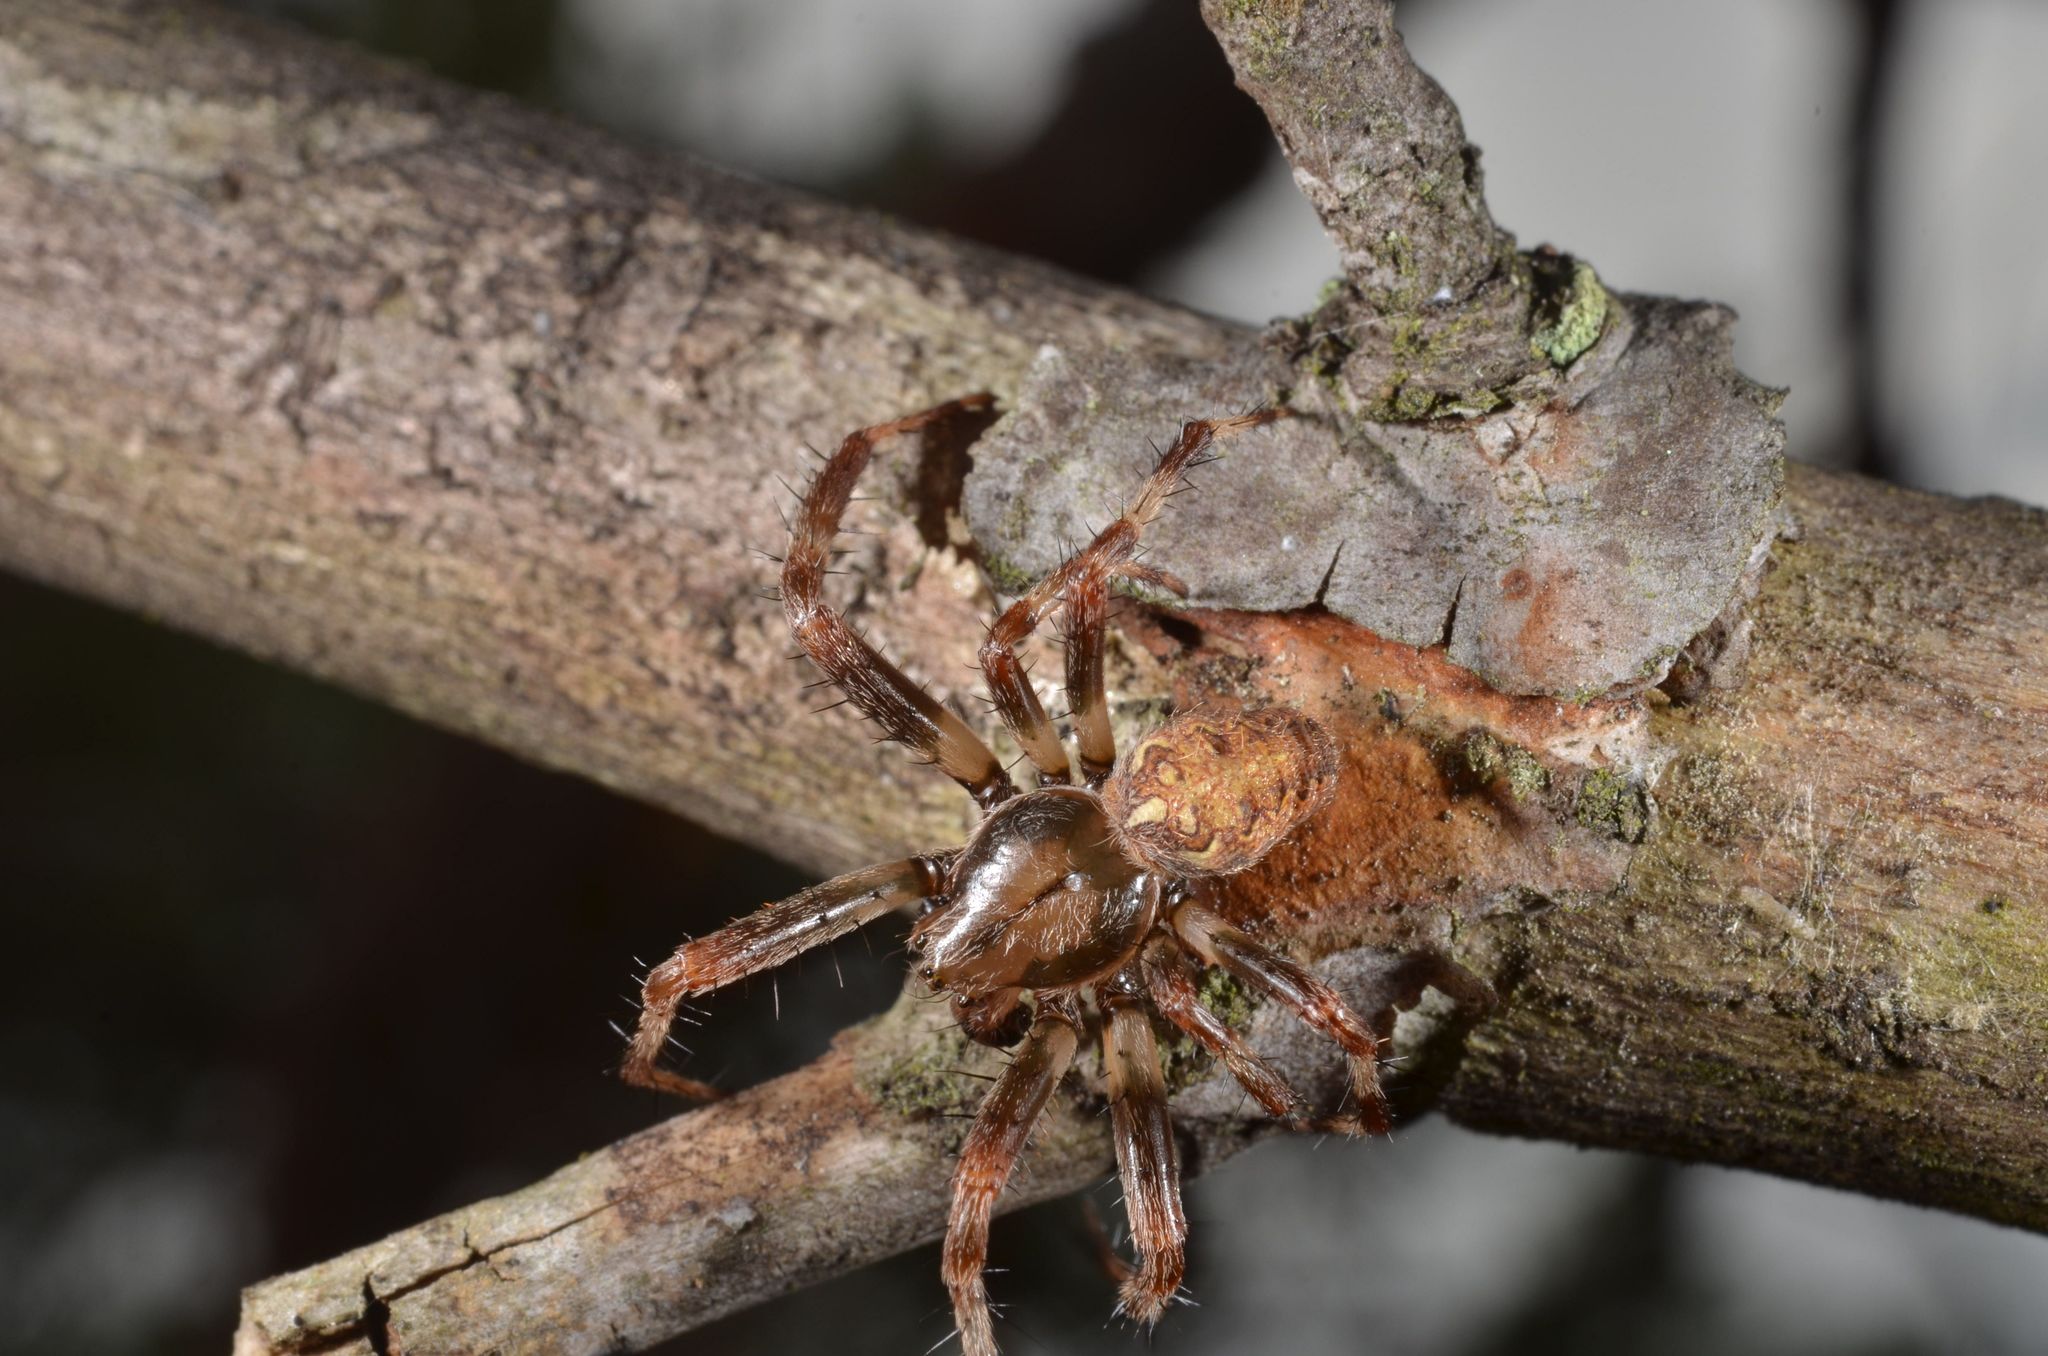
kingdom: Animalia
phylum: Arthropoda
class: Arachnida
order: Araneae
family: Araneidae
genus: Araneus
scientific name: Araneus diadematus
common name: Cross orbweaver
